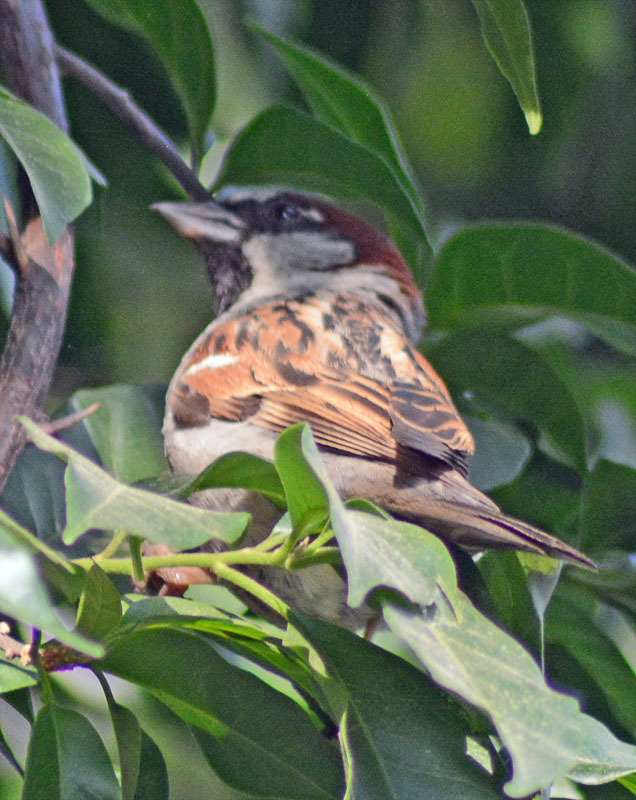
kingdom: Animalia
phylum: Chordata
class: Aves
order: Passeriformes
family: Passeridae
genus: Passer
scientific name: Passer domesticus
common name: House sparrow
